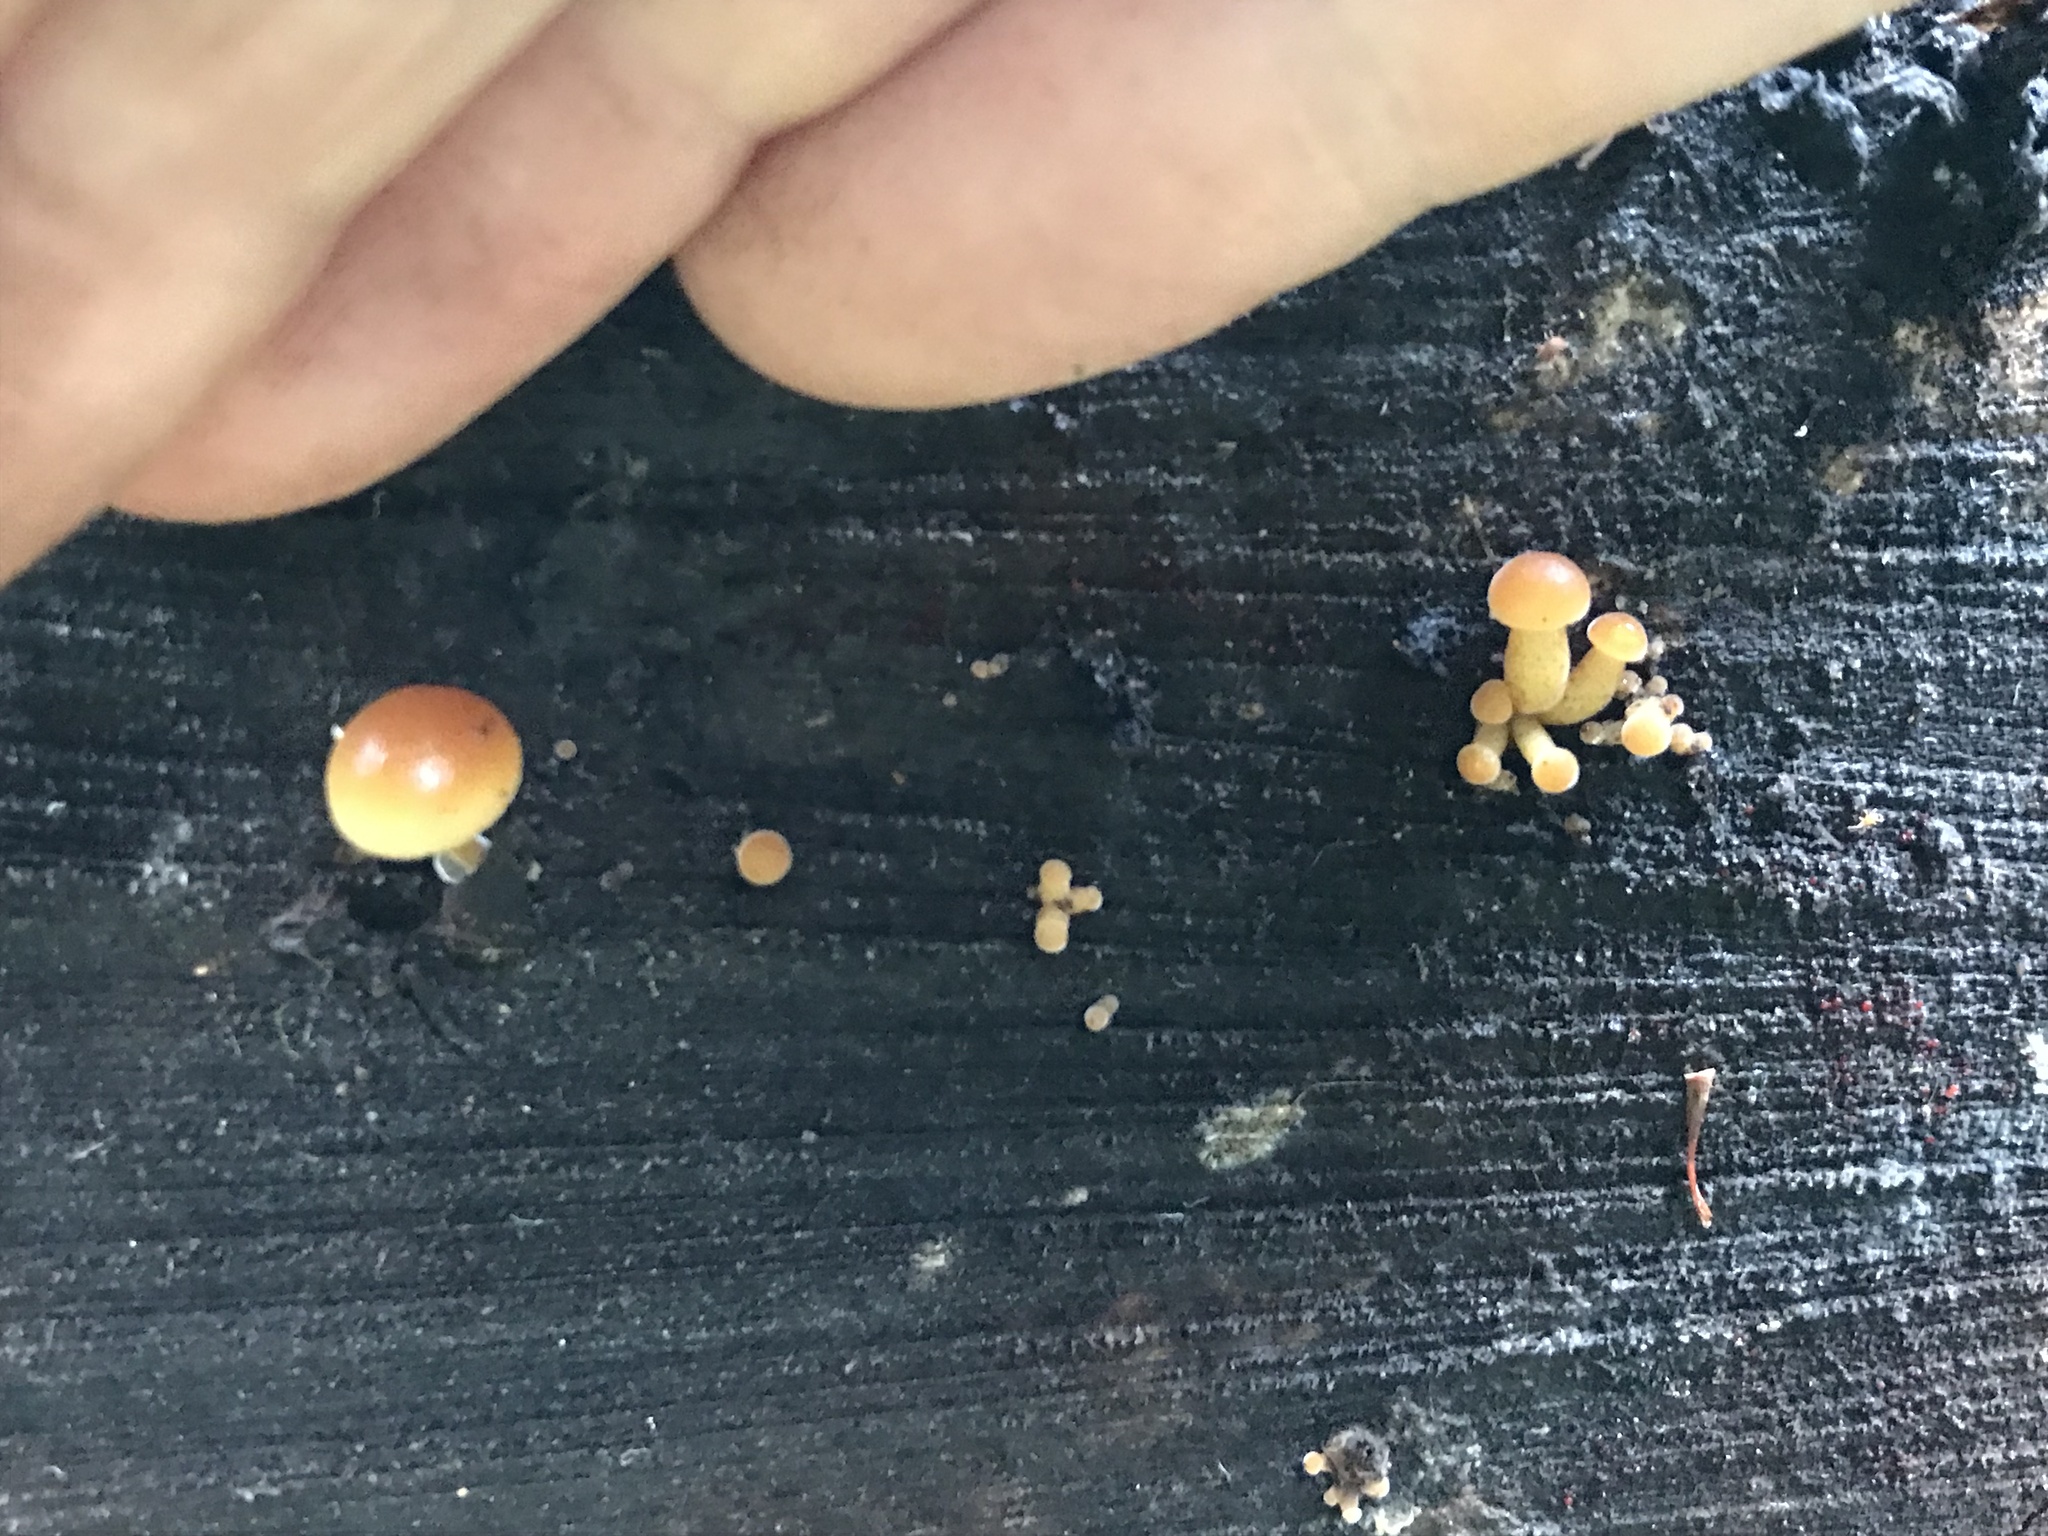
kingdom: Fungi
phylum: Basidiomycota
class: Agaricomycetes
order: Agaricales
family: Hymenogastraceae
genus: Galerina
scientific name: Galerina marginata
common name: Funeral bell
